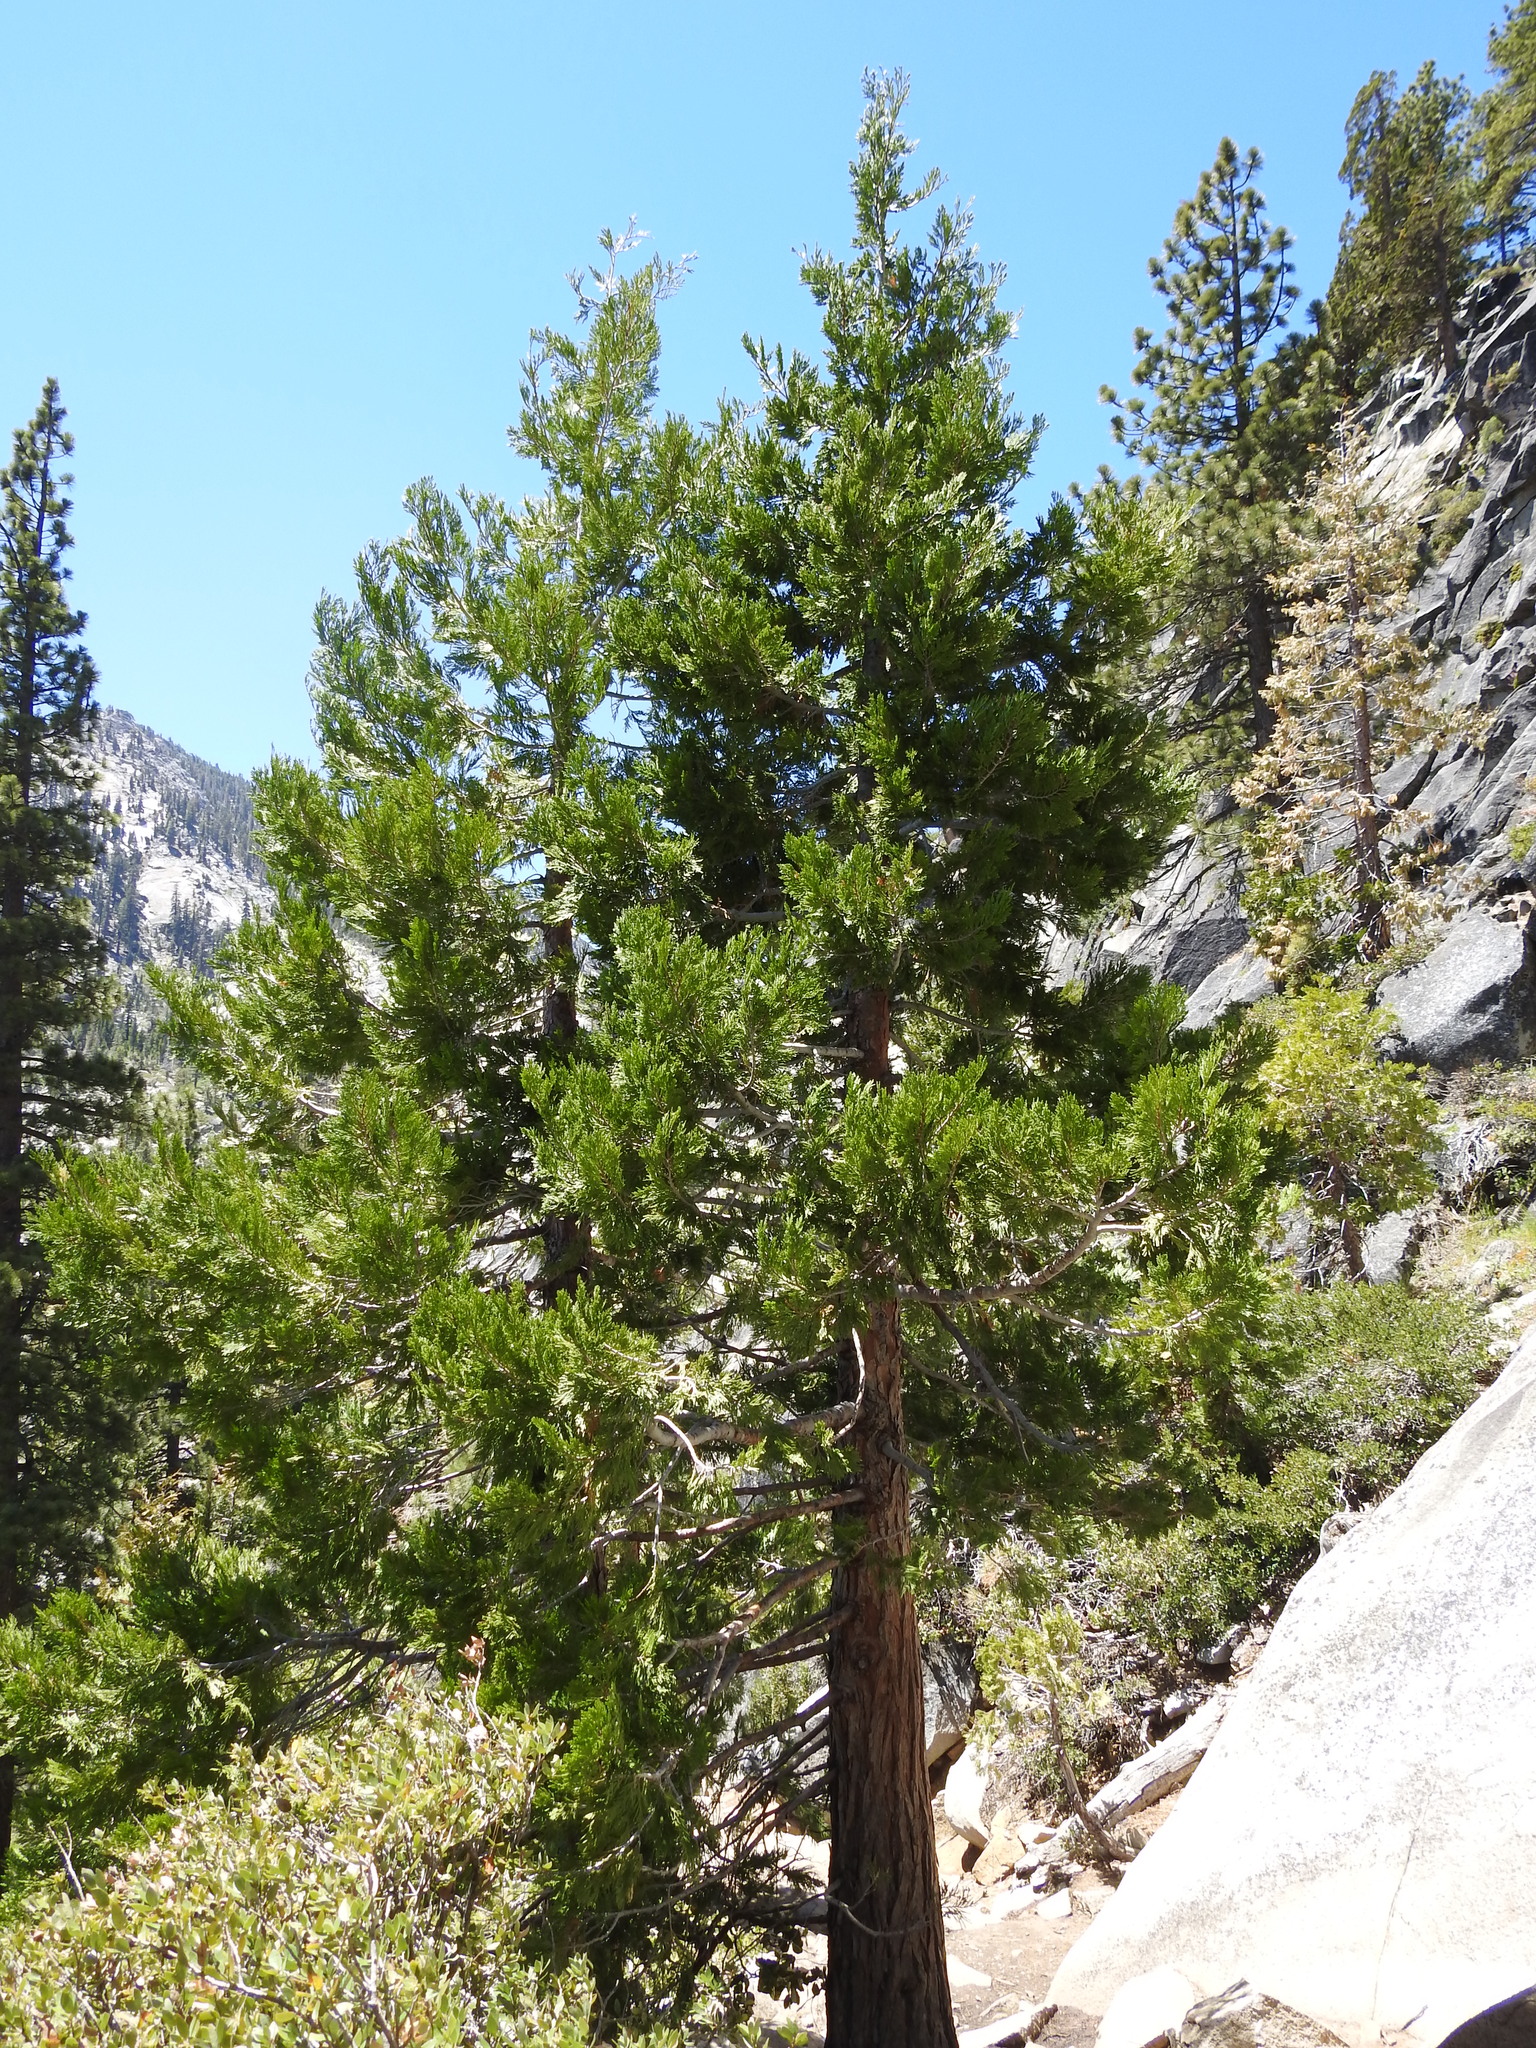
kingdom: Plantae
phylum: Tracheophyta
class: Pinopsida
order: Pinales
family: Cupressaceae
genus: Calocedrus
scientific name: Calocedrus decurrens
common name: Californian incense-cedar
